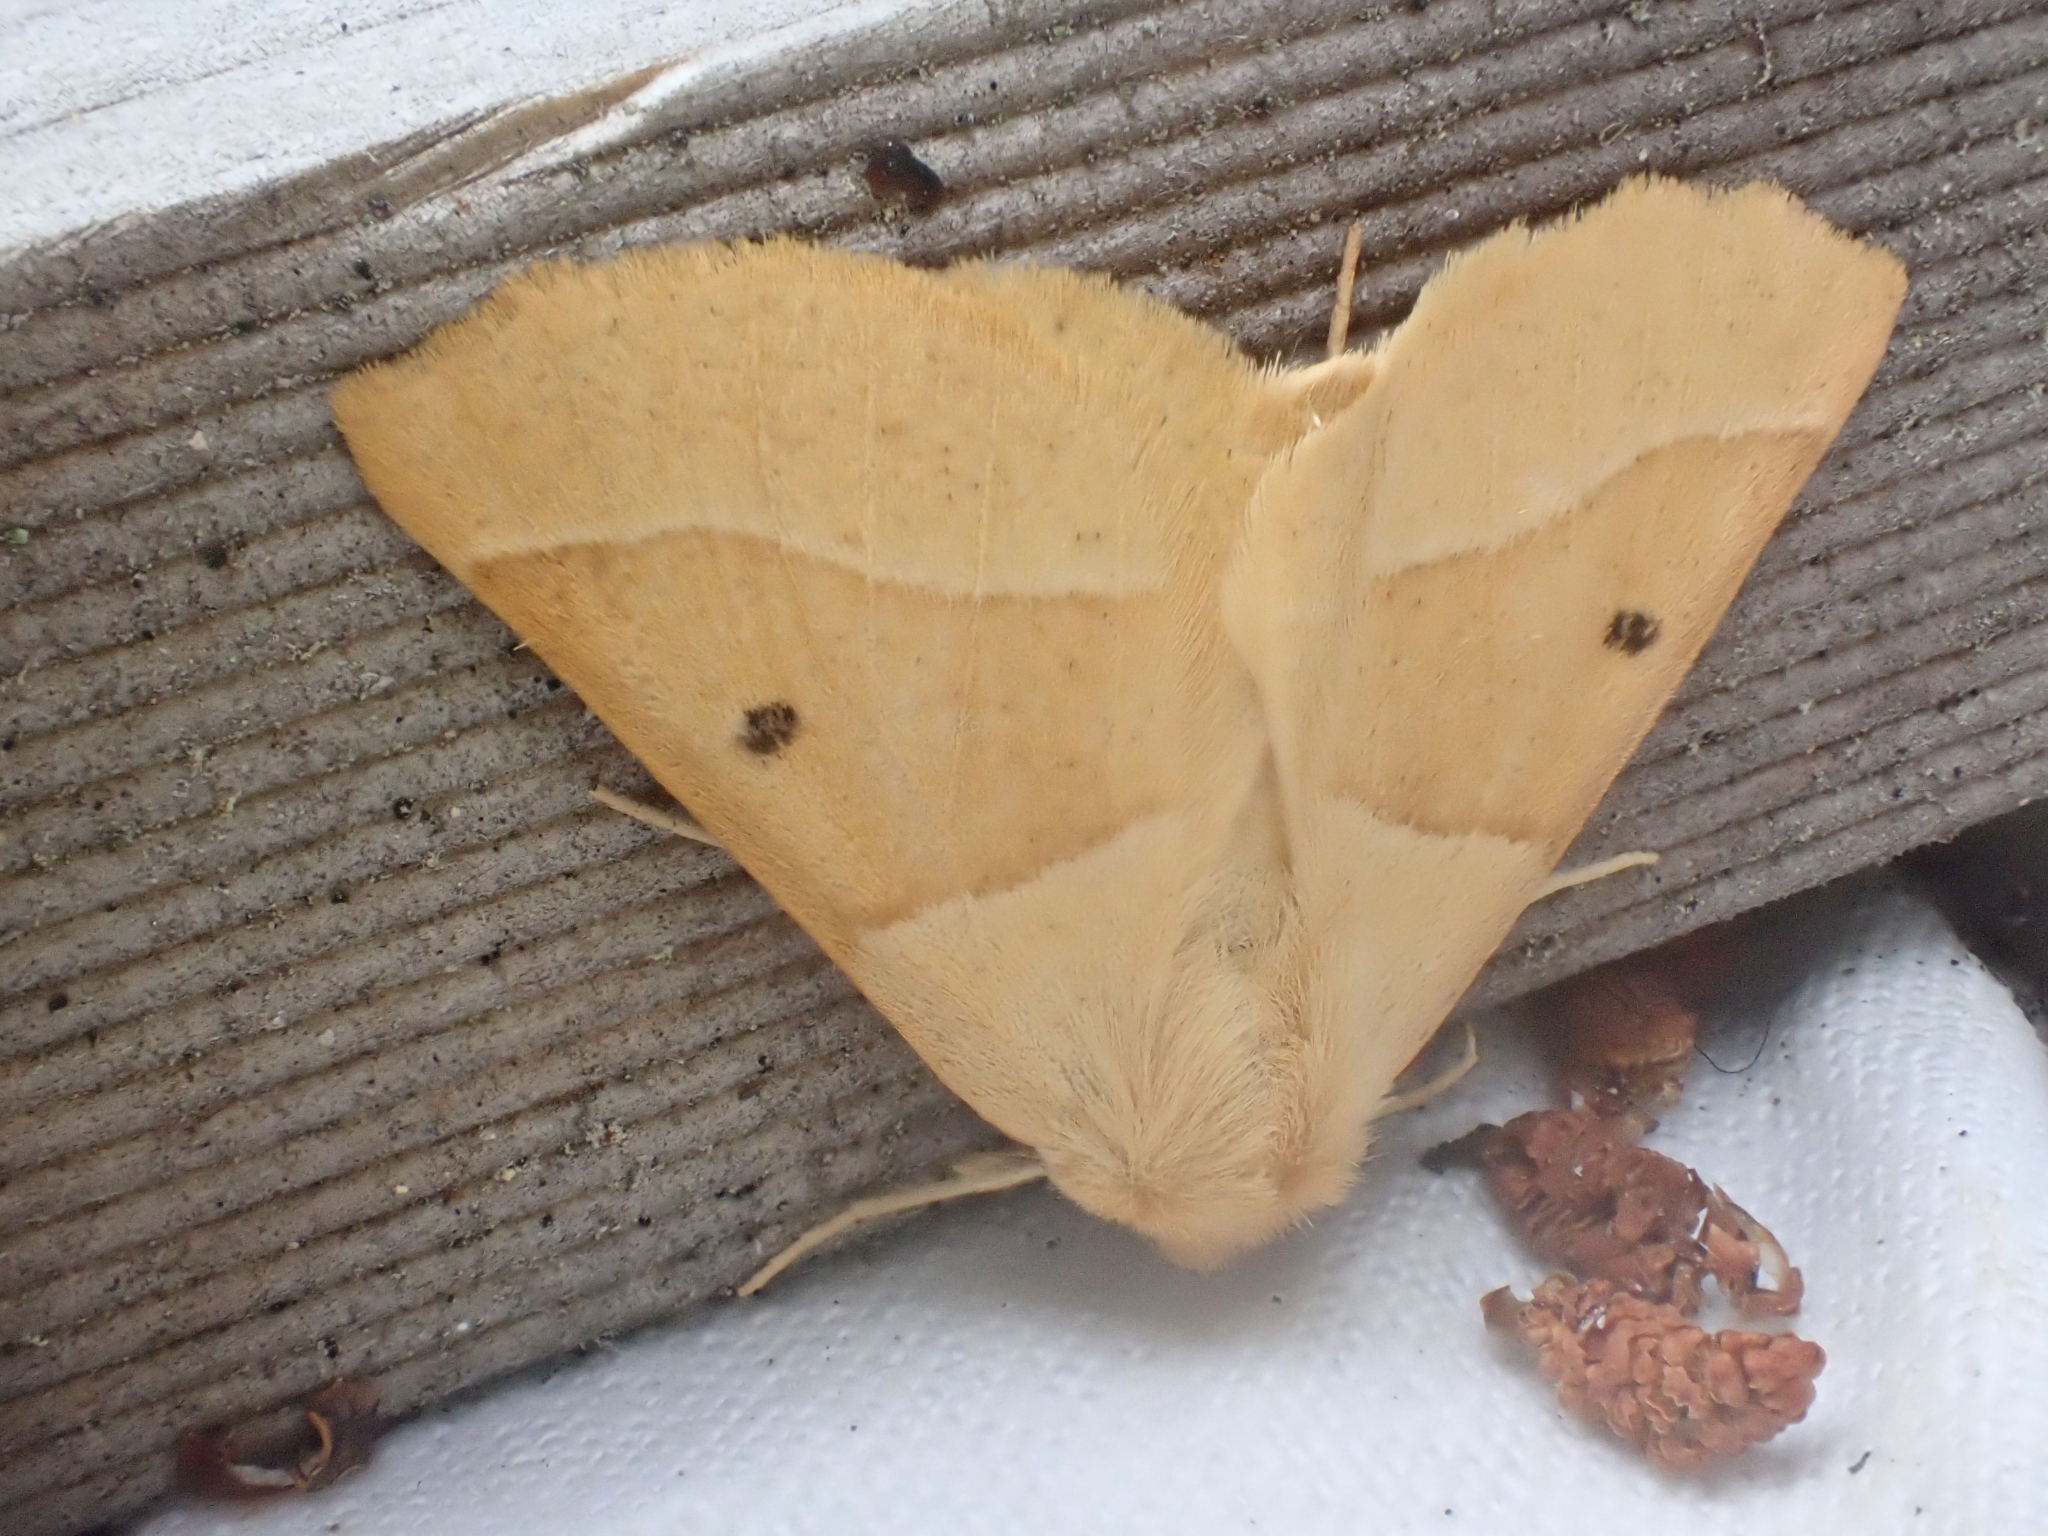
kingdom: Animalia
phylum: Arthropoda
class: Insecta
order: Lepidoptera
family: Geometridae
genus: Crocallis
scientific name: Crocallis elinguaria
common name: Scalloped oak
